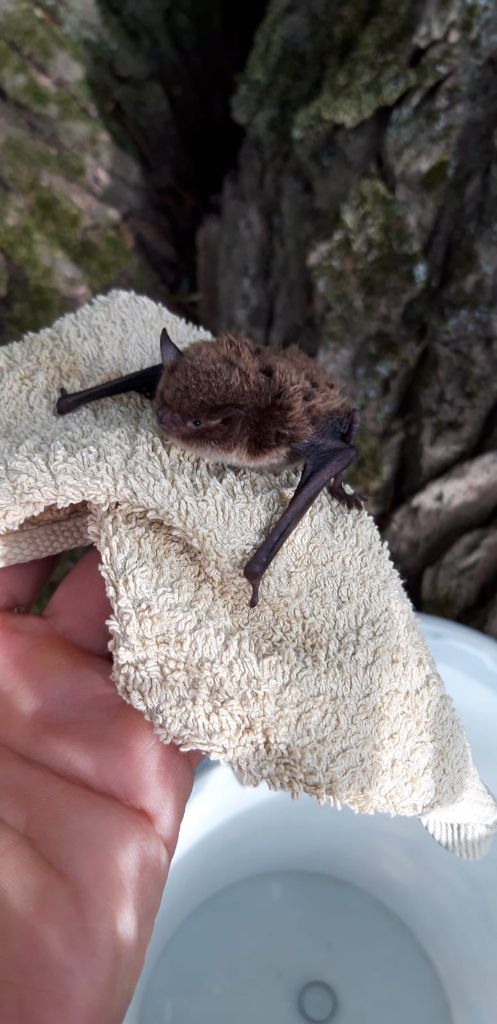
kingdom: Animalia
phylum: Chordata
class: Mammalia
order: Chiroptera
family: Vespertilionidae
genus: Myotis
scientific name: Myotis daubentonii
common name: Daubenton's myotis
